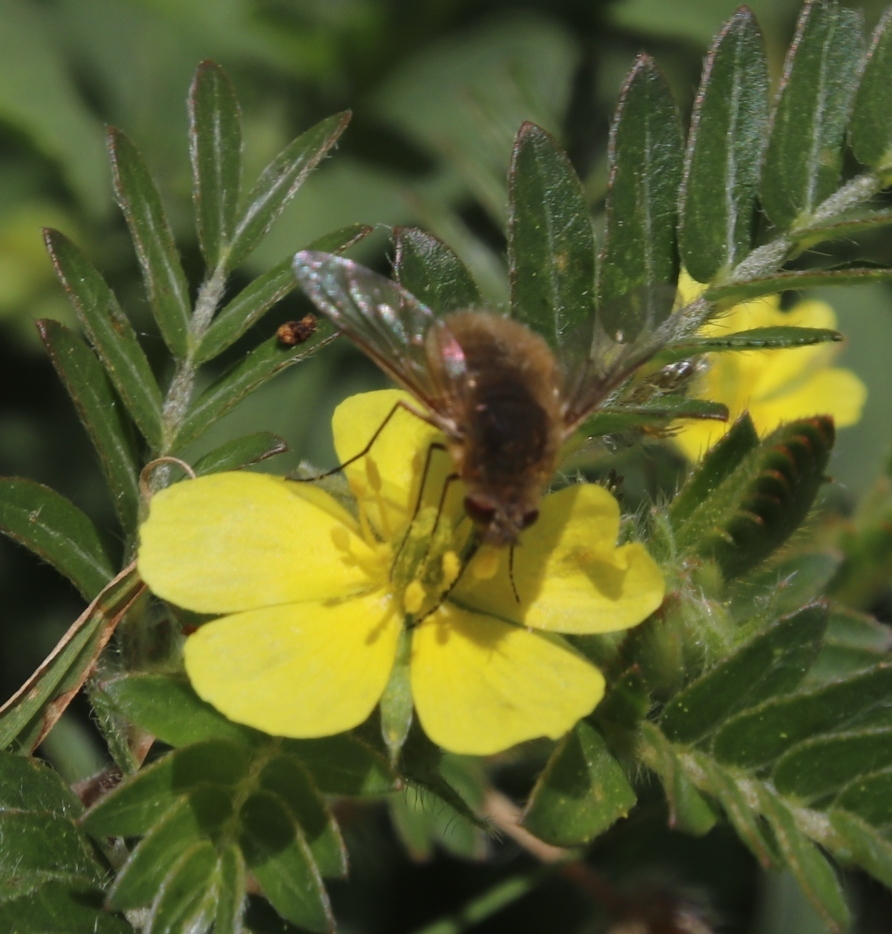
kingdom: Plantae
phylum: Tracheophyta
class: Magnoliopsida
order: Zygophyllales
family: Zygophyllaceae
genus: Tribulus
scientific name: Tribulus terrestris
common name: Puncturevine
